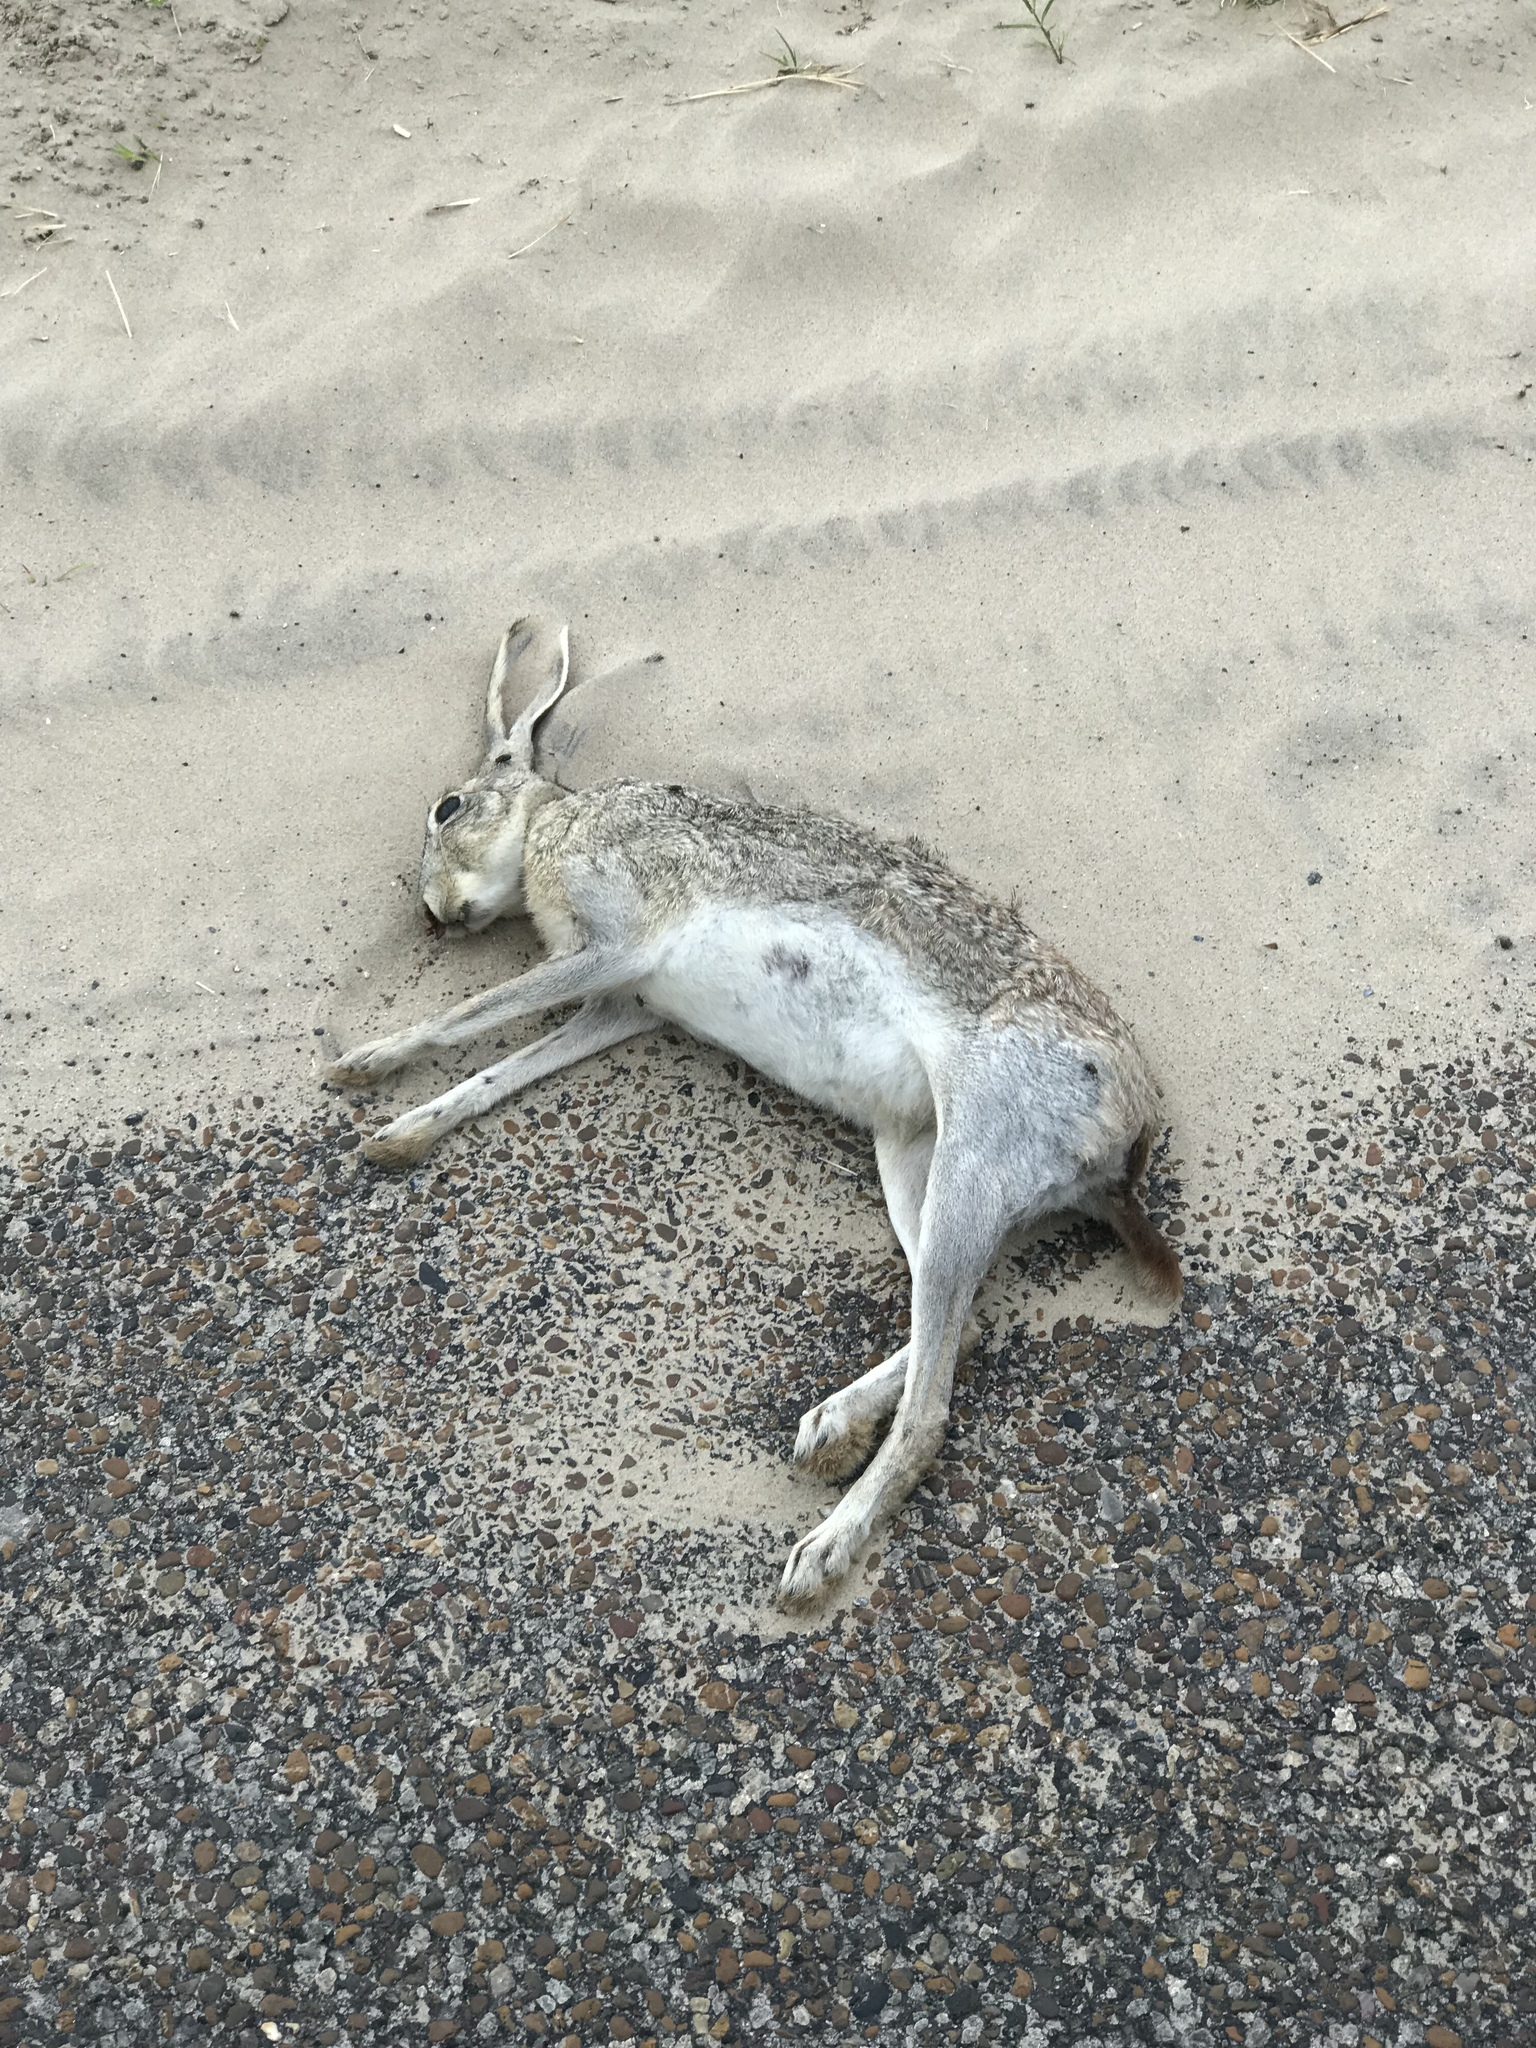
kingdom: Animalia
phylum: Chordata
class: Mammalia
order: Lagomorpha
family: Leporidae
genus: Lepus
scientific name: Lepus californicus
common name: Black-tailed jackrabbit
